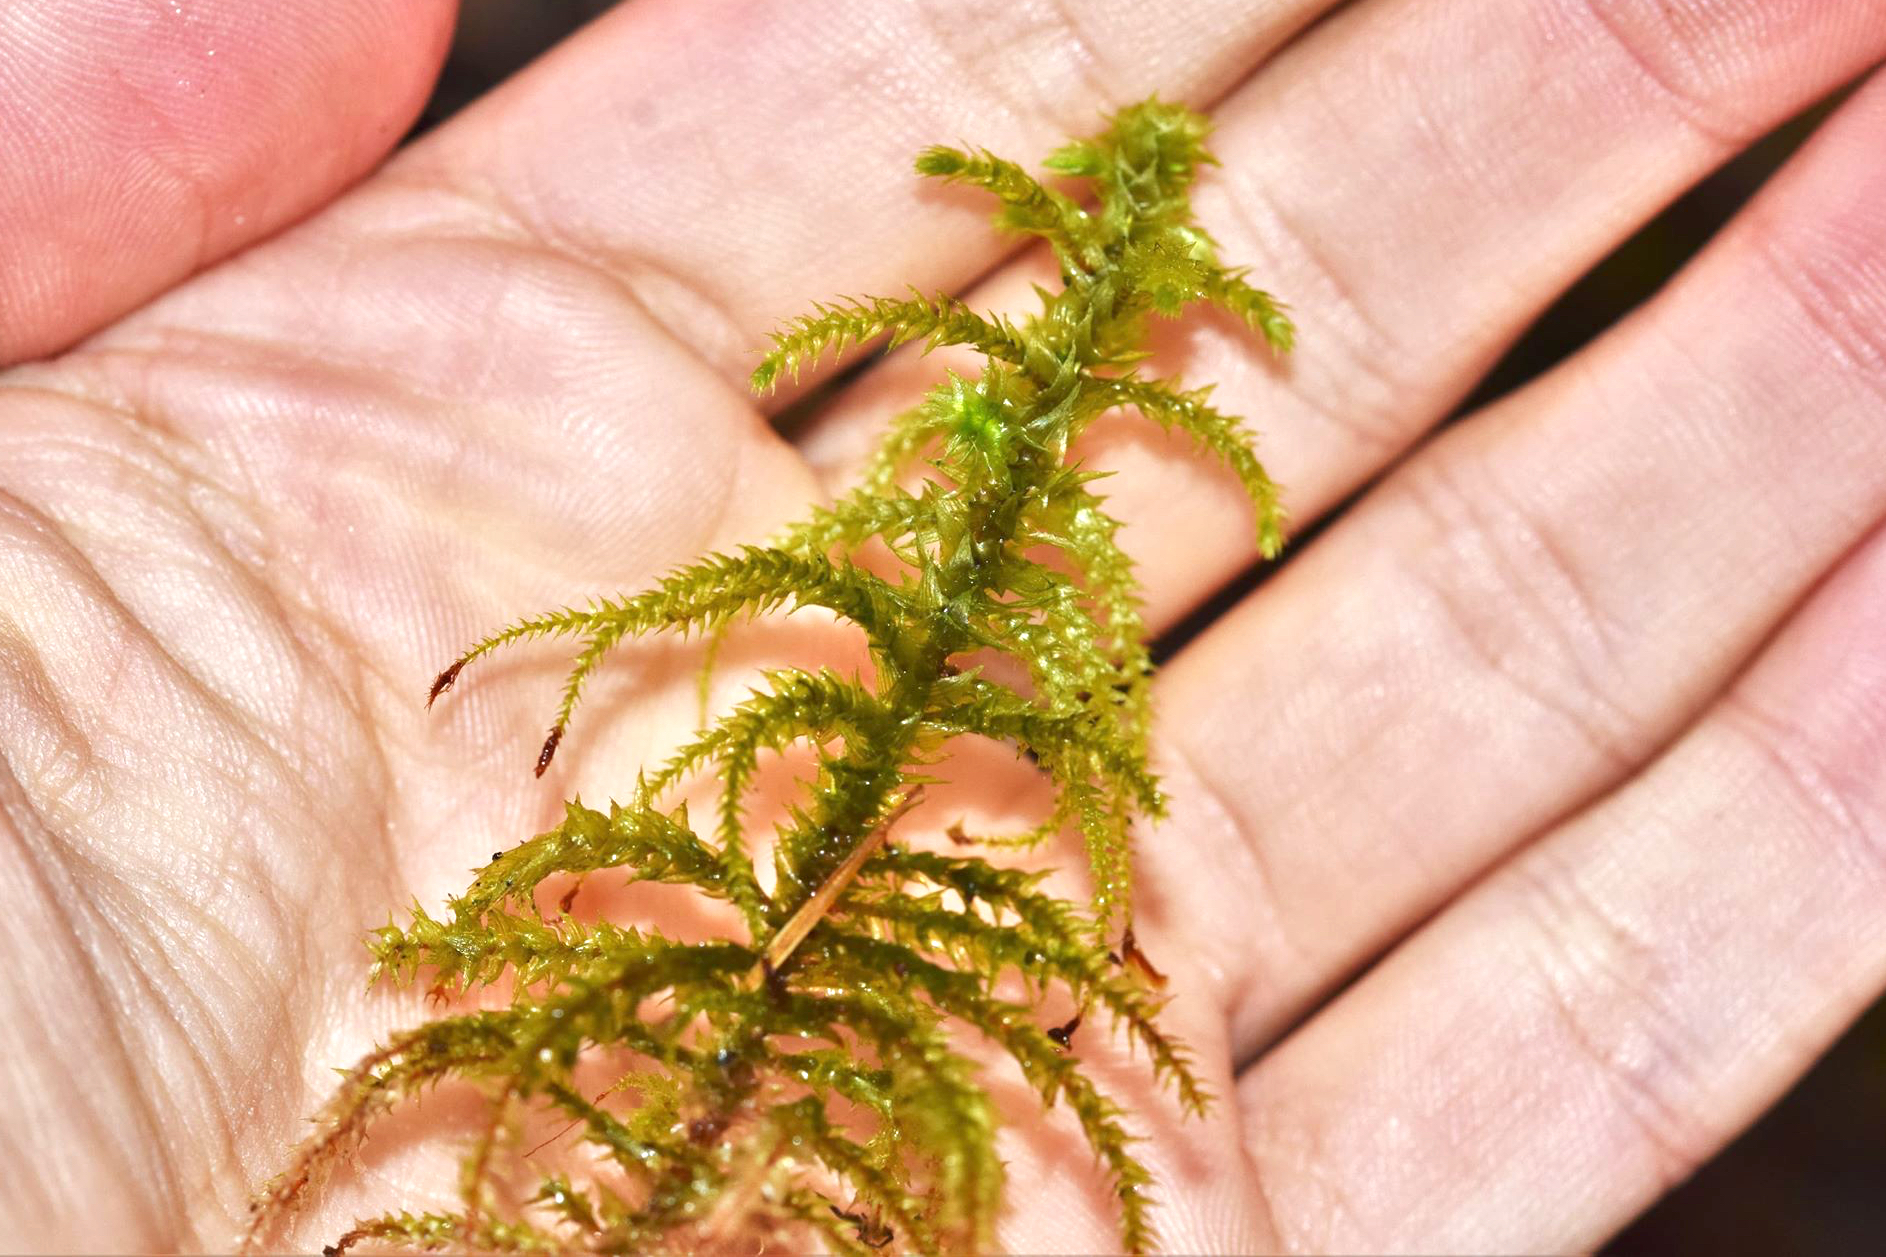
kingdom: Plantae
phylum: Bryophyta
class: Bryopsida
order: Hypnales
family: Hylocomiaceae
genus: Hylocomiadelphus
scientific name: Hylocomiadelphus triquetrus
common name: Rough goose neck moss
